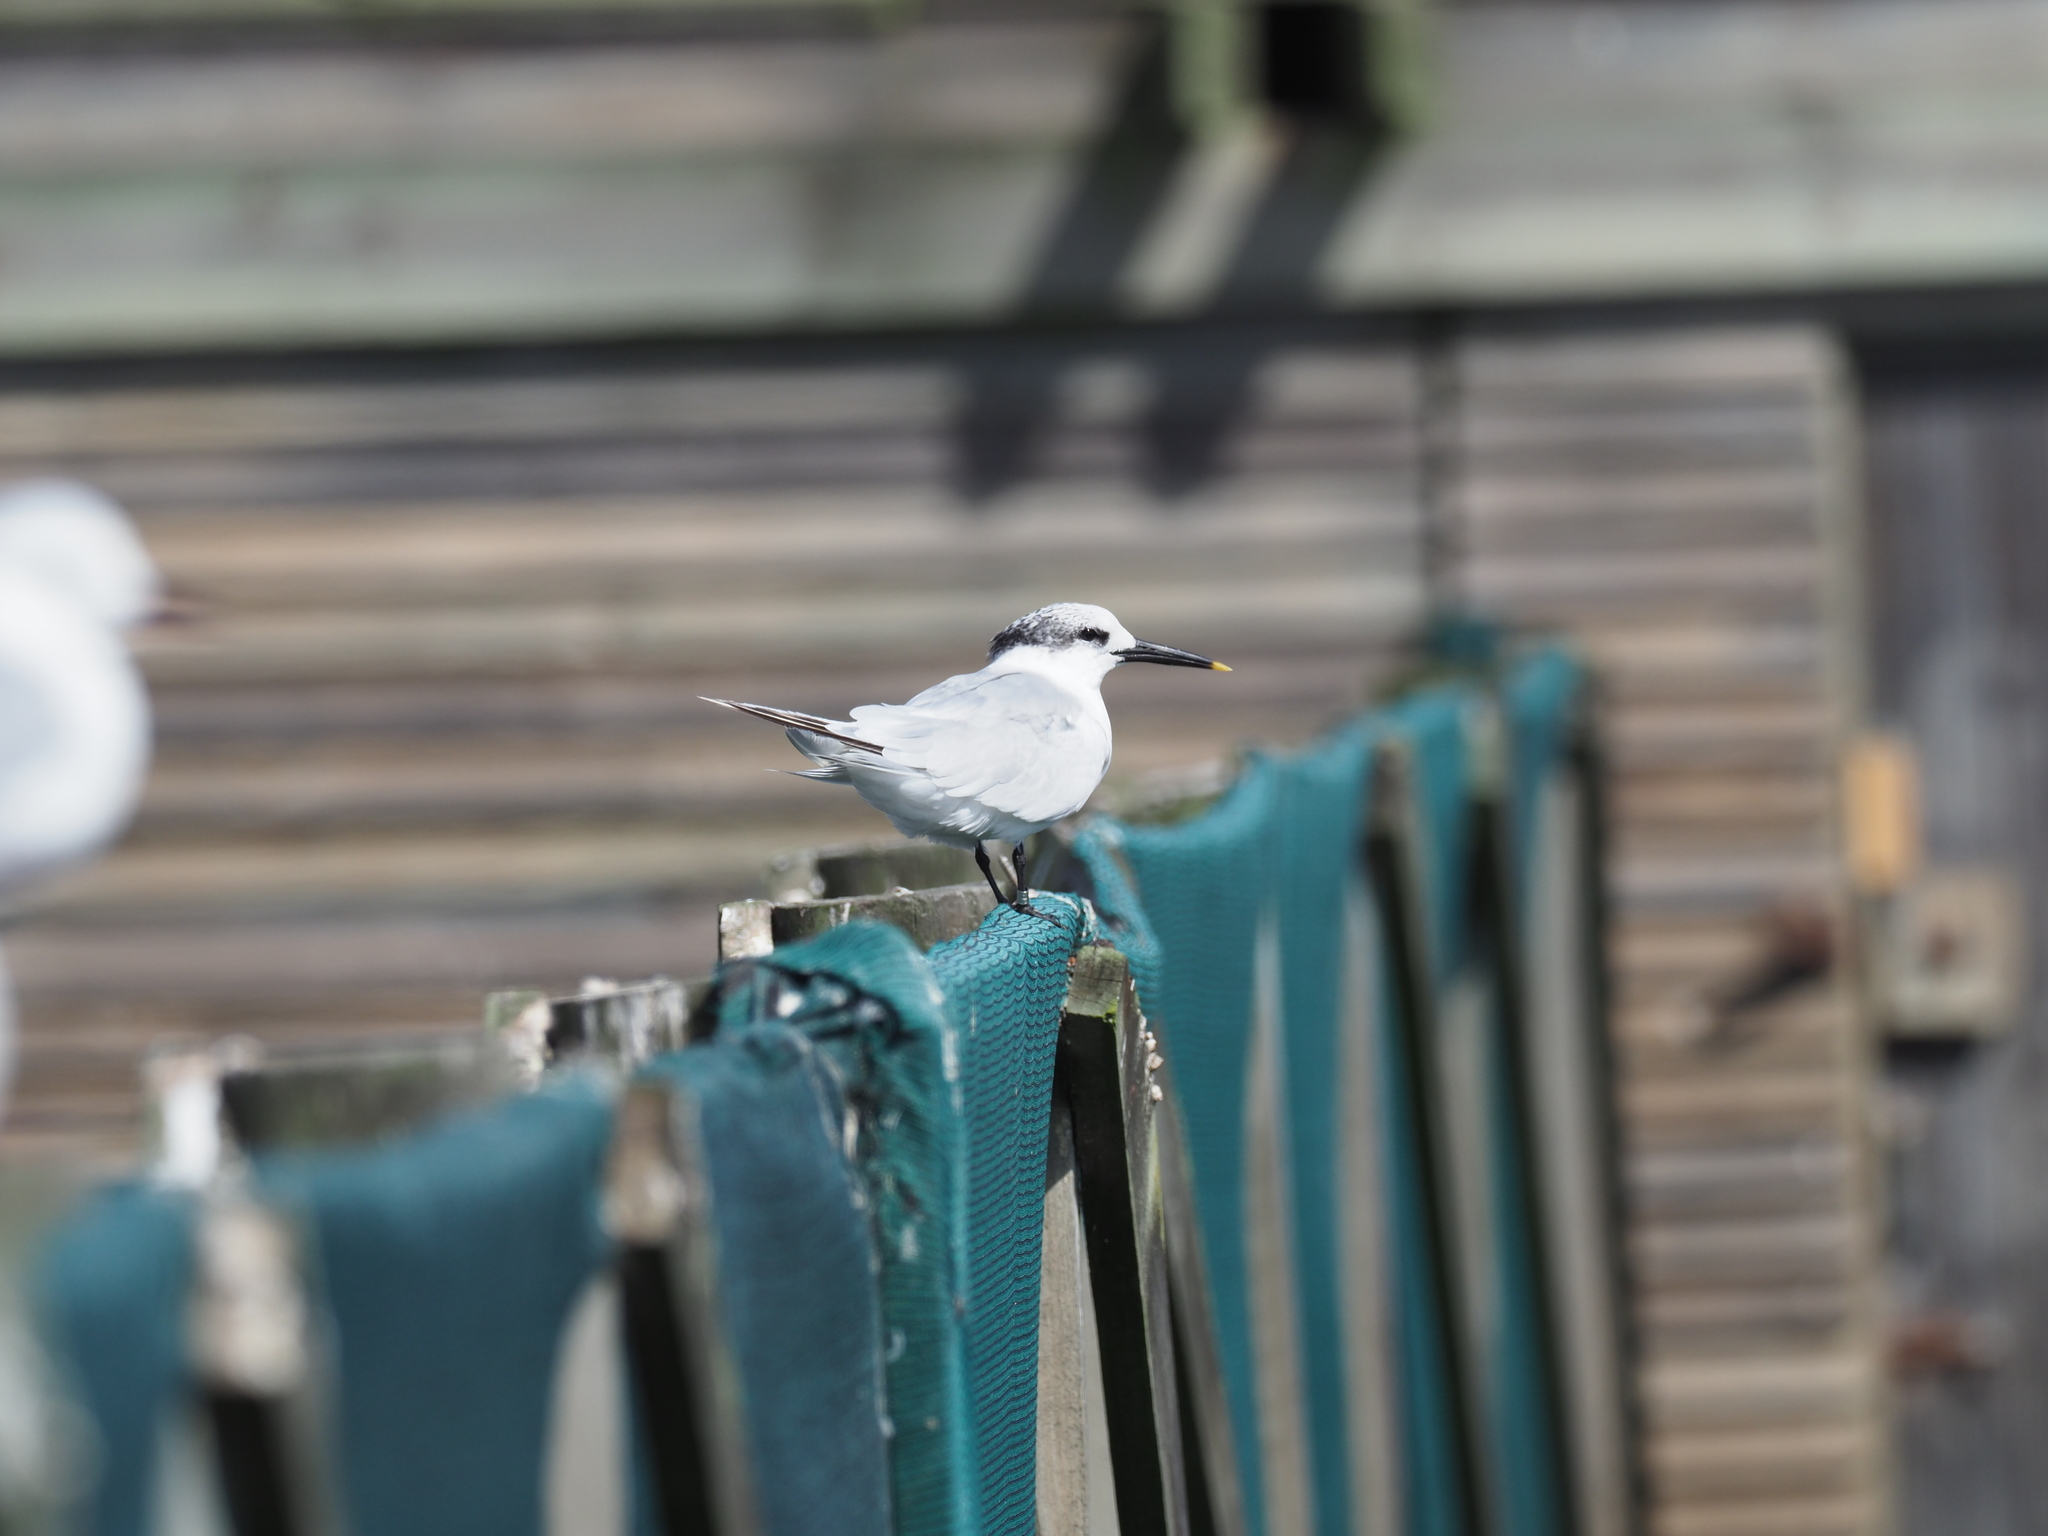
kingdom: Animalia
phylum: Chordata
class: Aves
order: Charadriiformes
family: Laridae
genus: Thalasseus
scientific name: Thalasseus sandvicensis
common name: Sandwich tern
